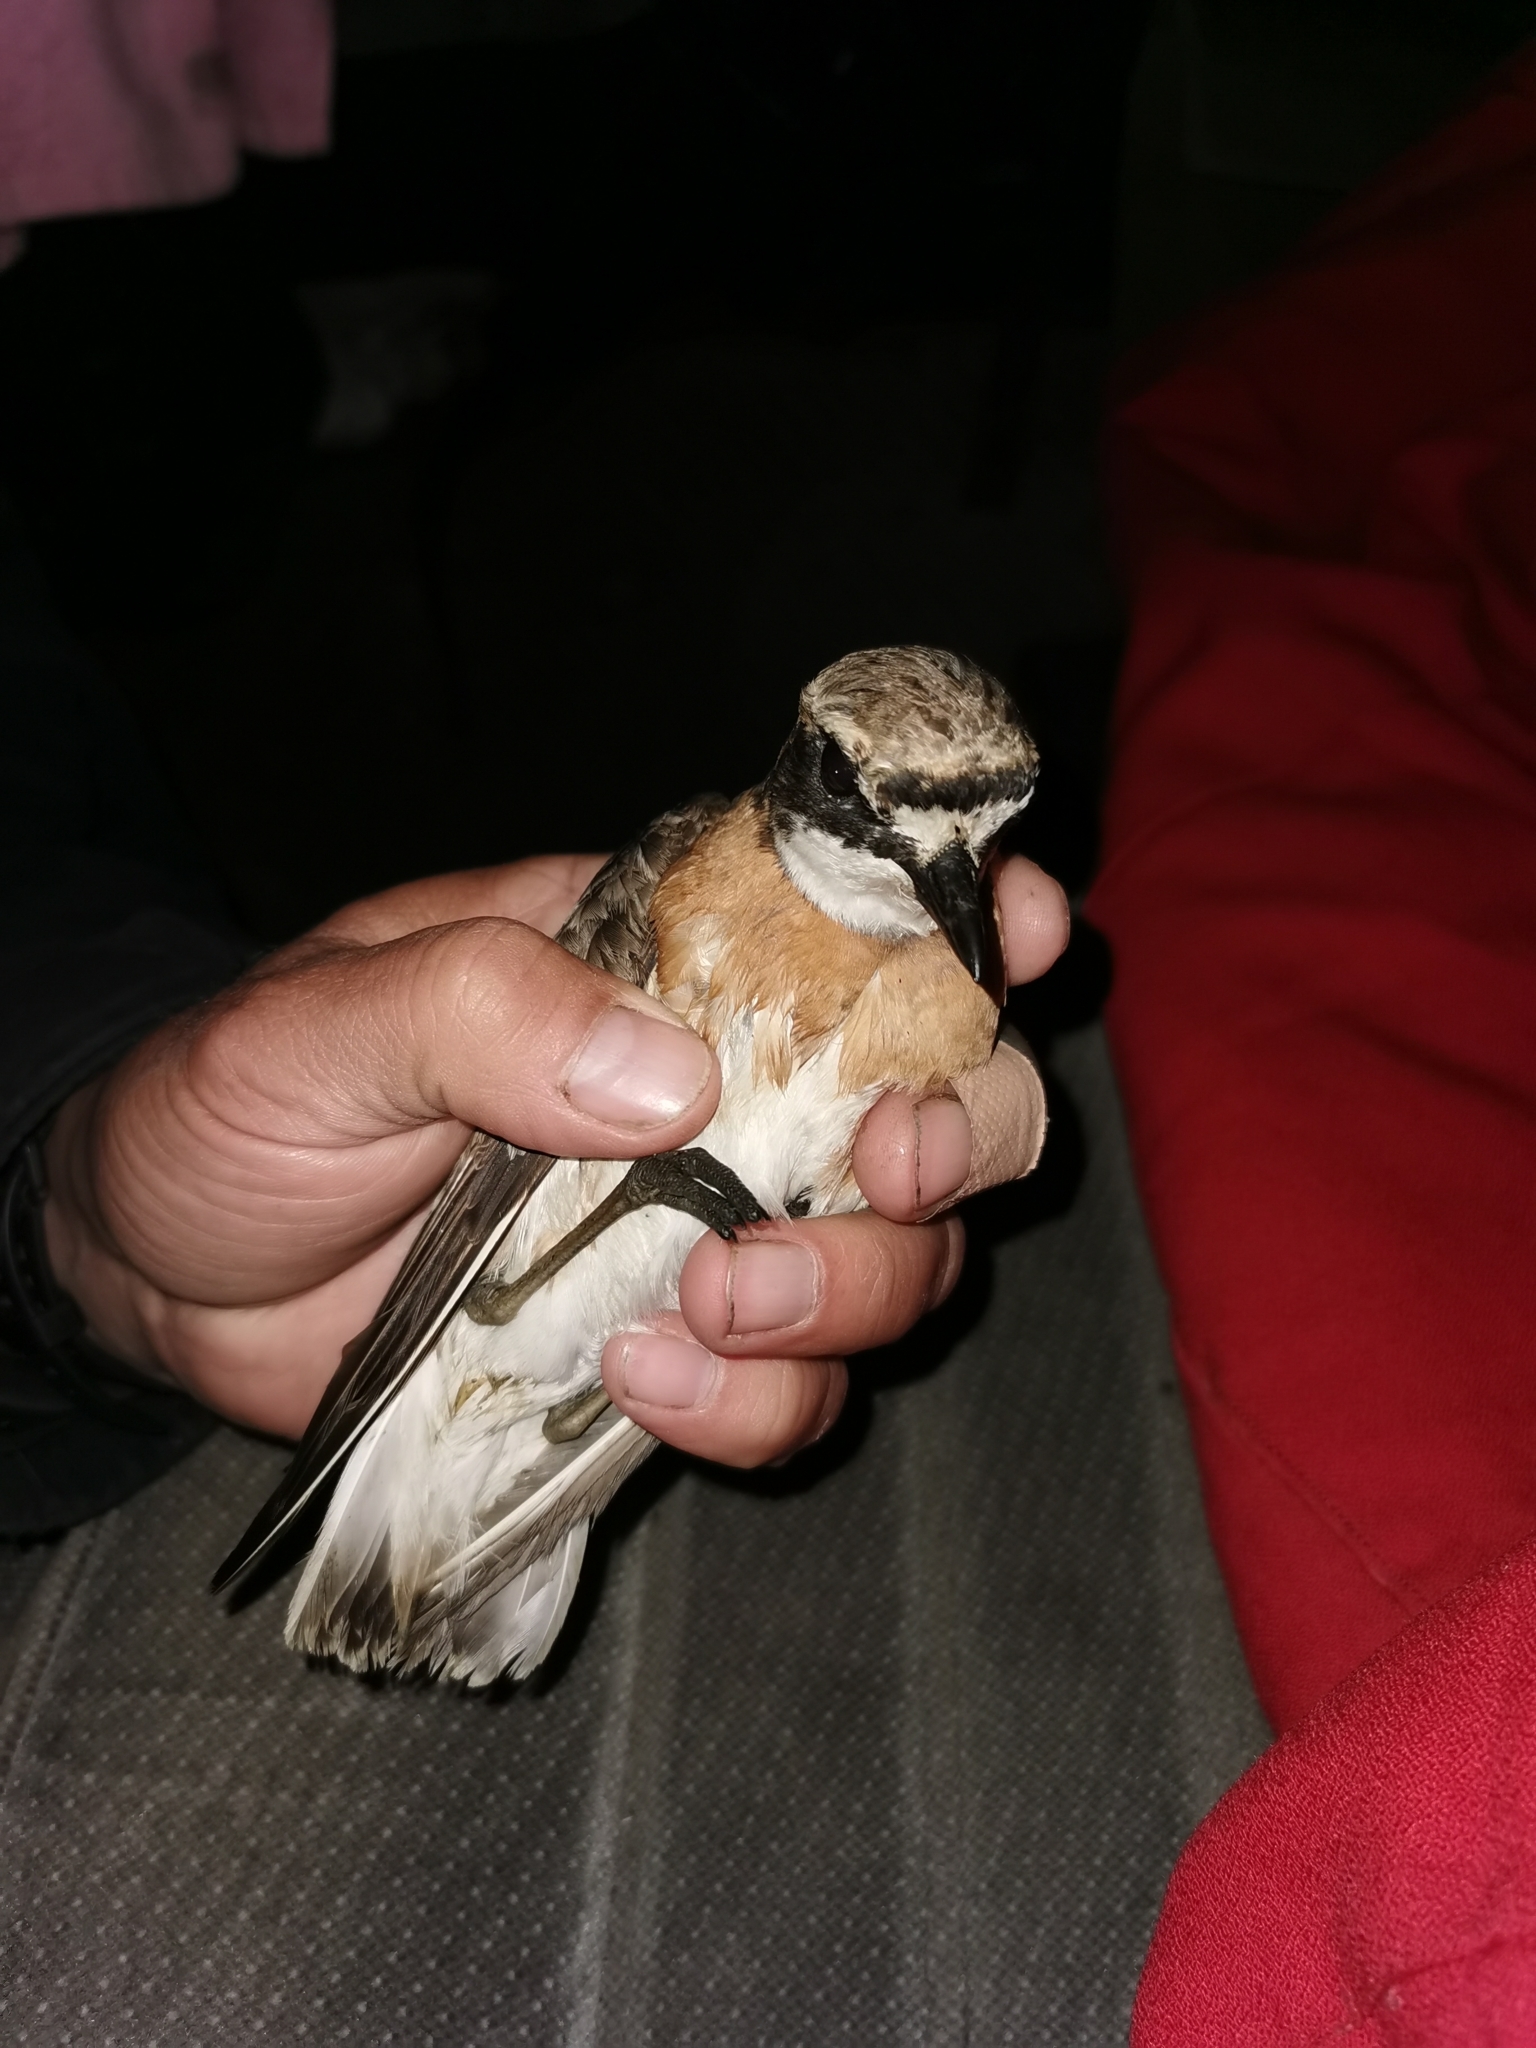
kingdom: Animalia
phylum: Chordata
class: Aves
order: Charadriiformes
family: Charadriidae
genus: Anarhynchus
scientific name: Anarhynchus
